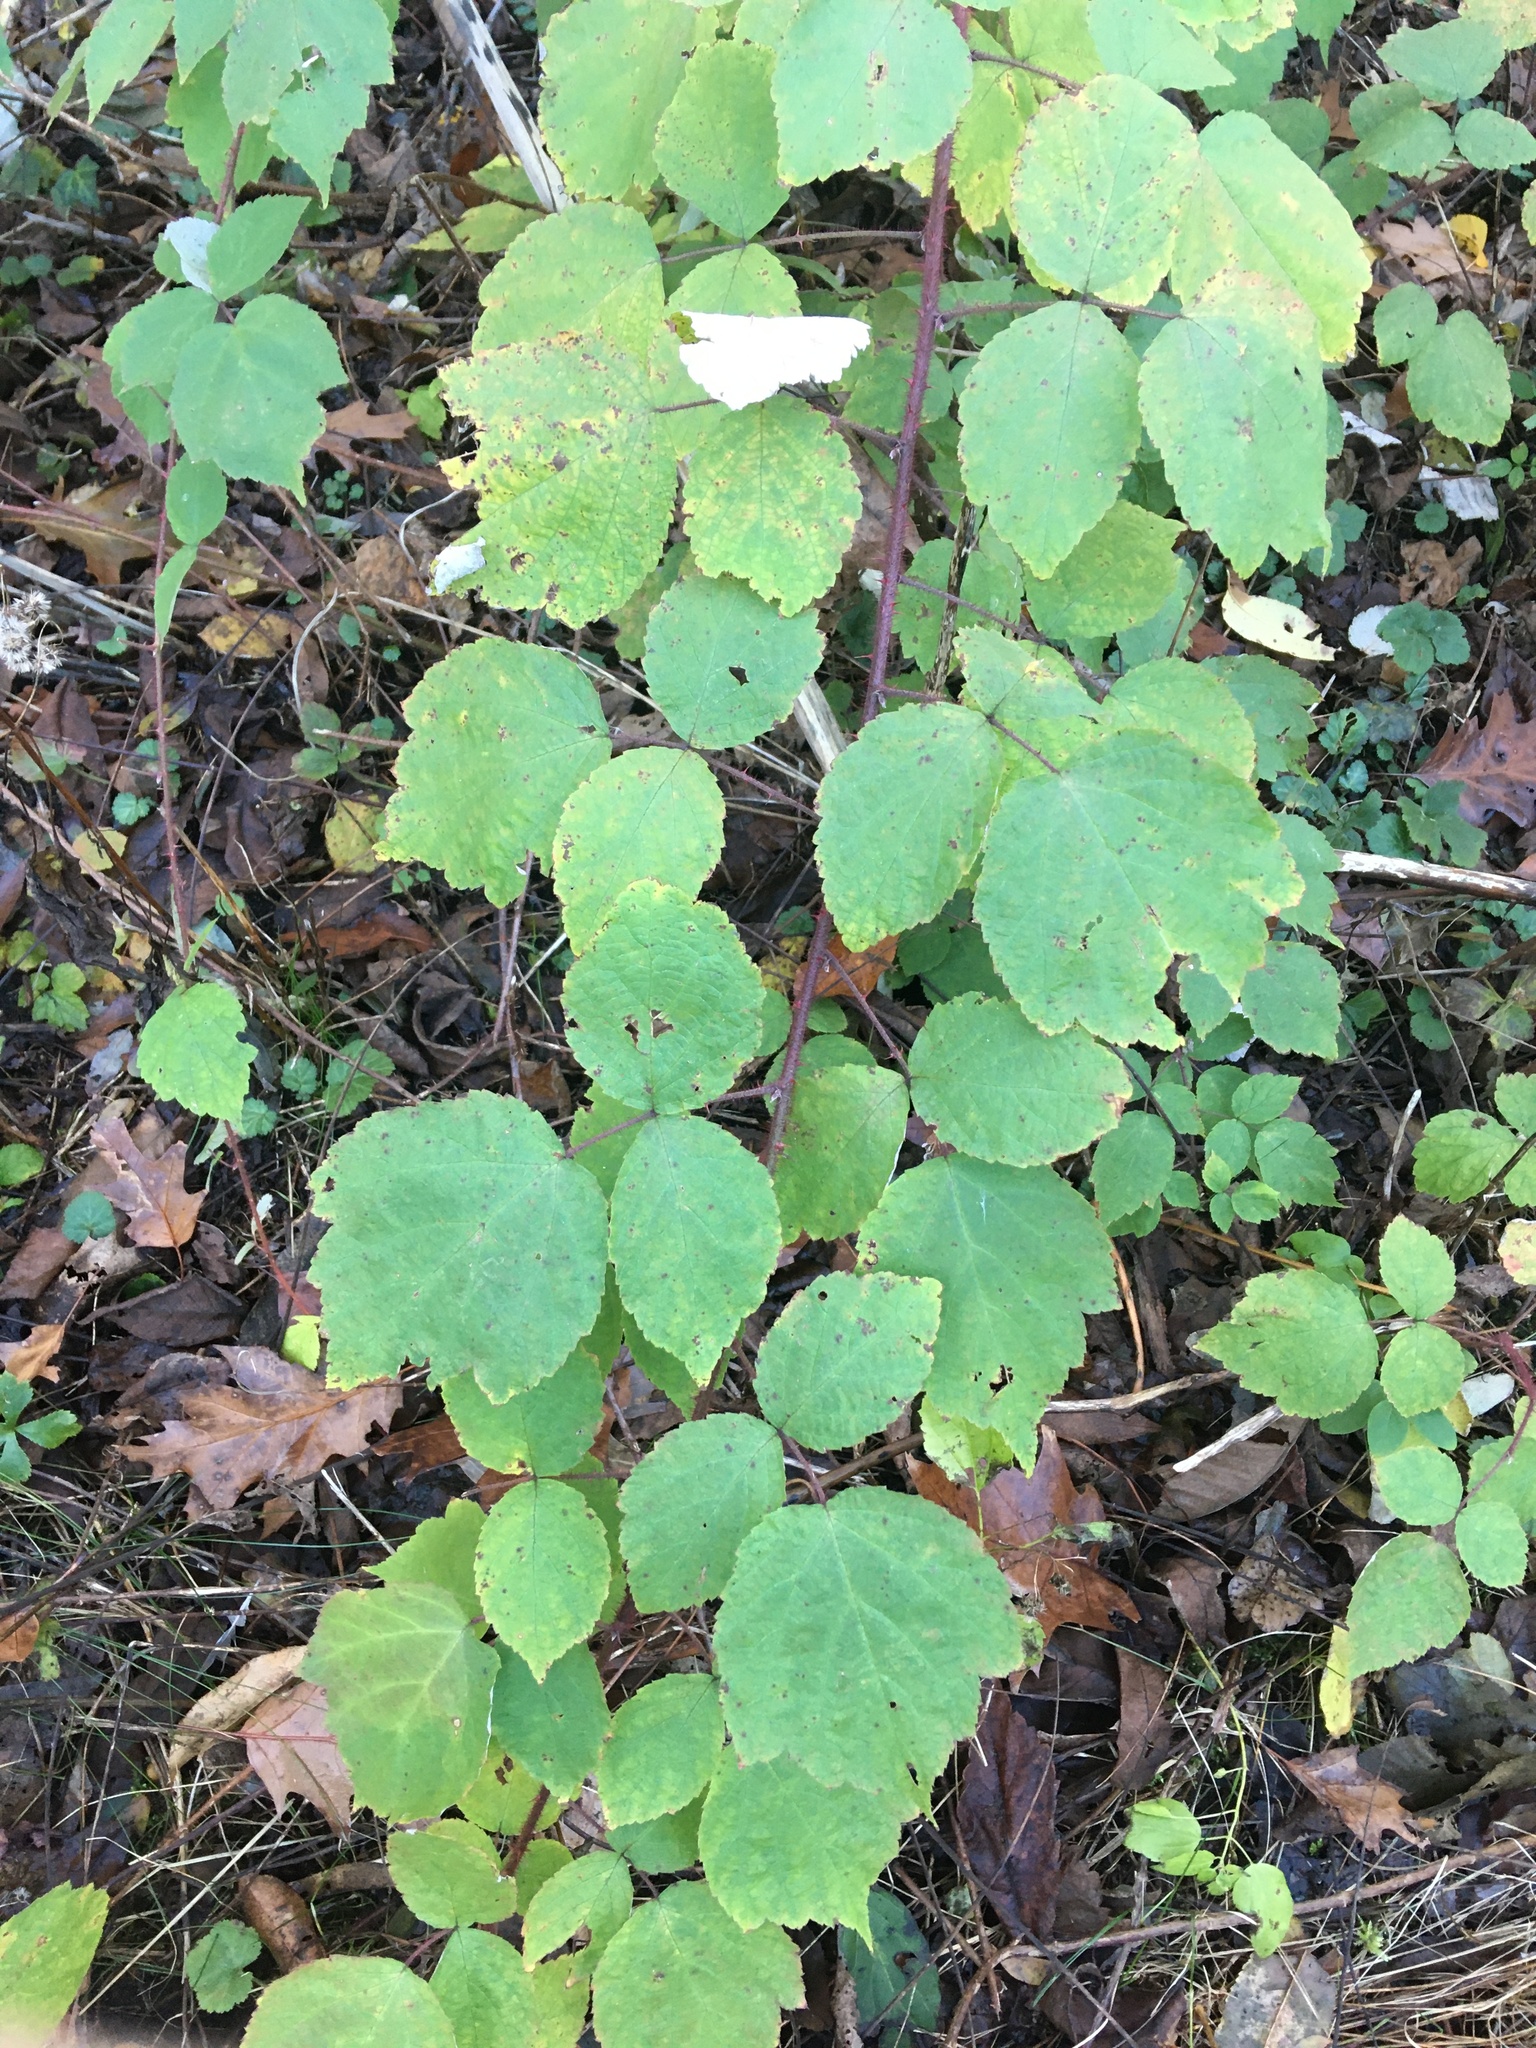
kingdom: Plantae
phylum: Tracheophyta
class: Magnoliopsida
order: Rosales
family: Rosaceae
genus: Rubus
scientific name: Rubus phoenicolasius
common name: Japanese wineberry
